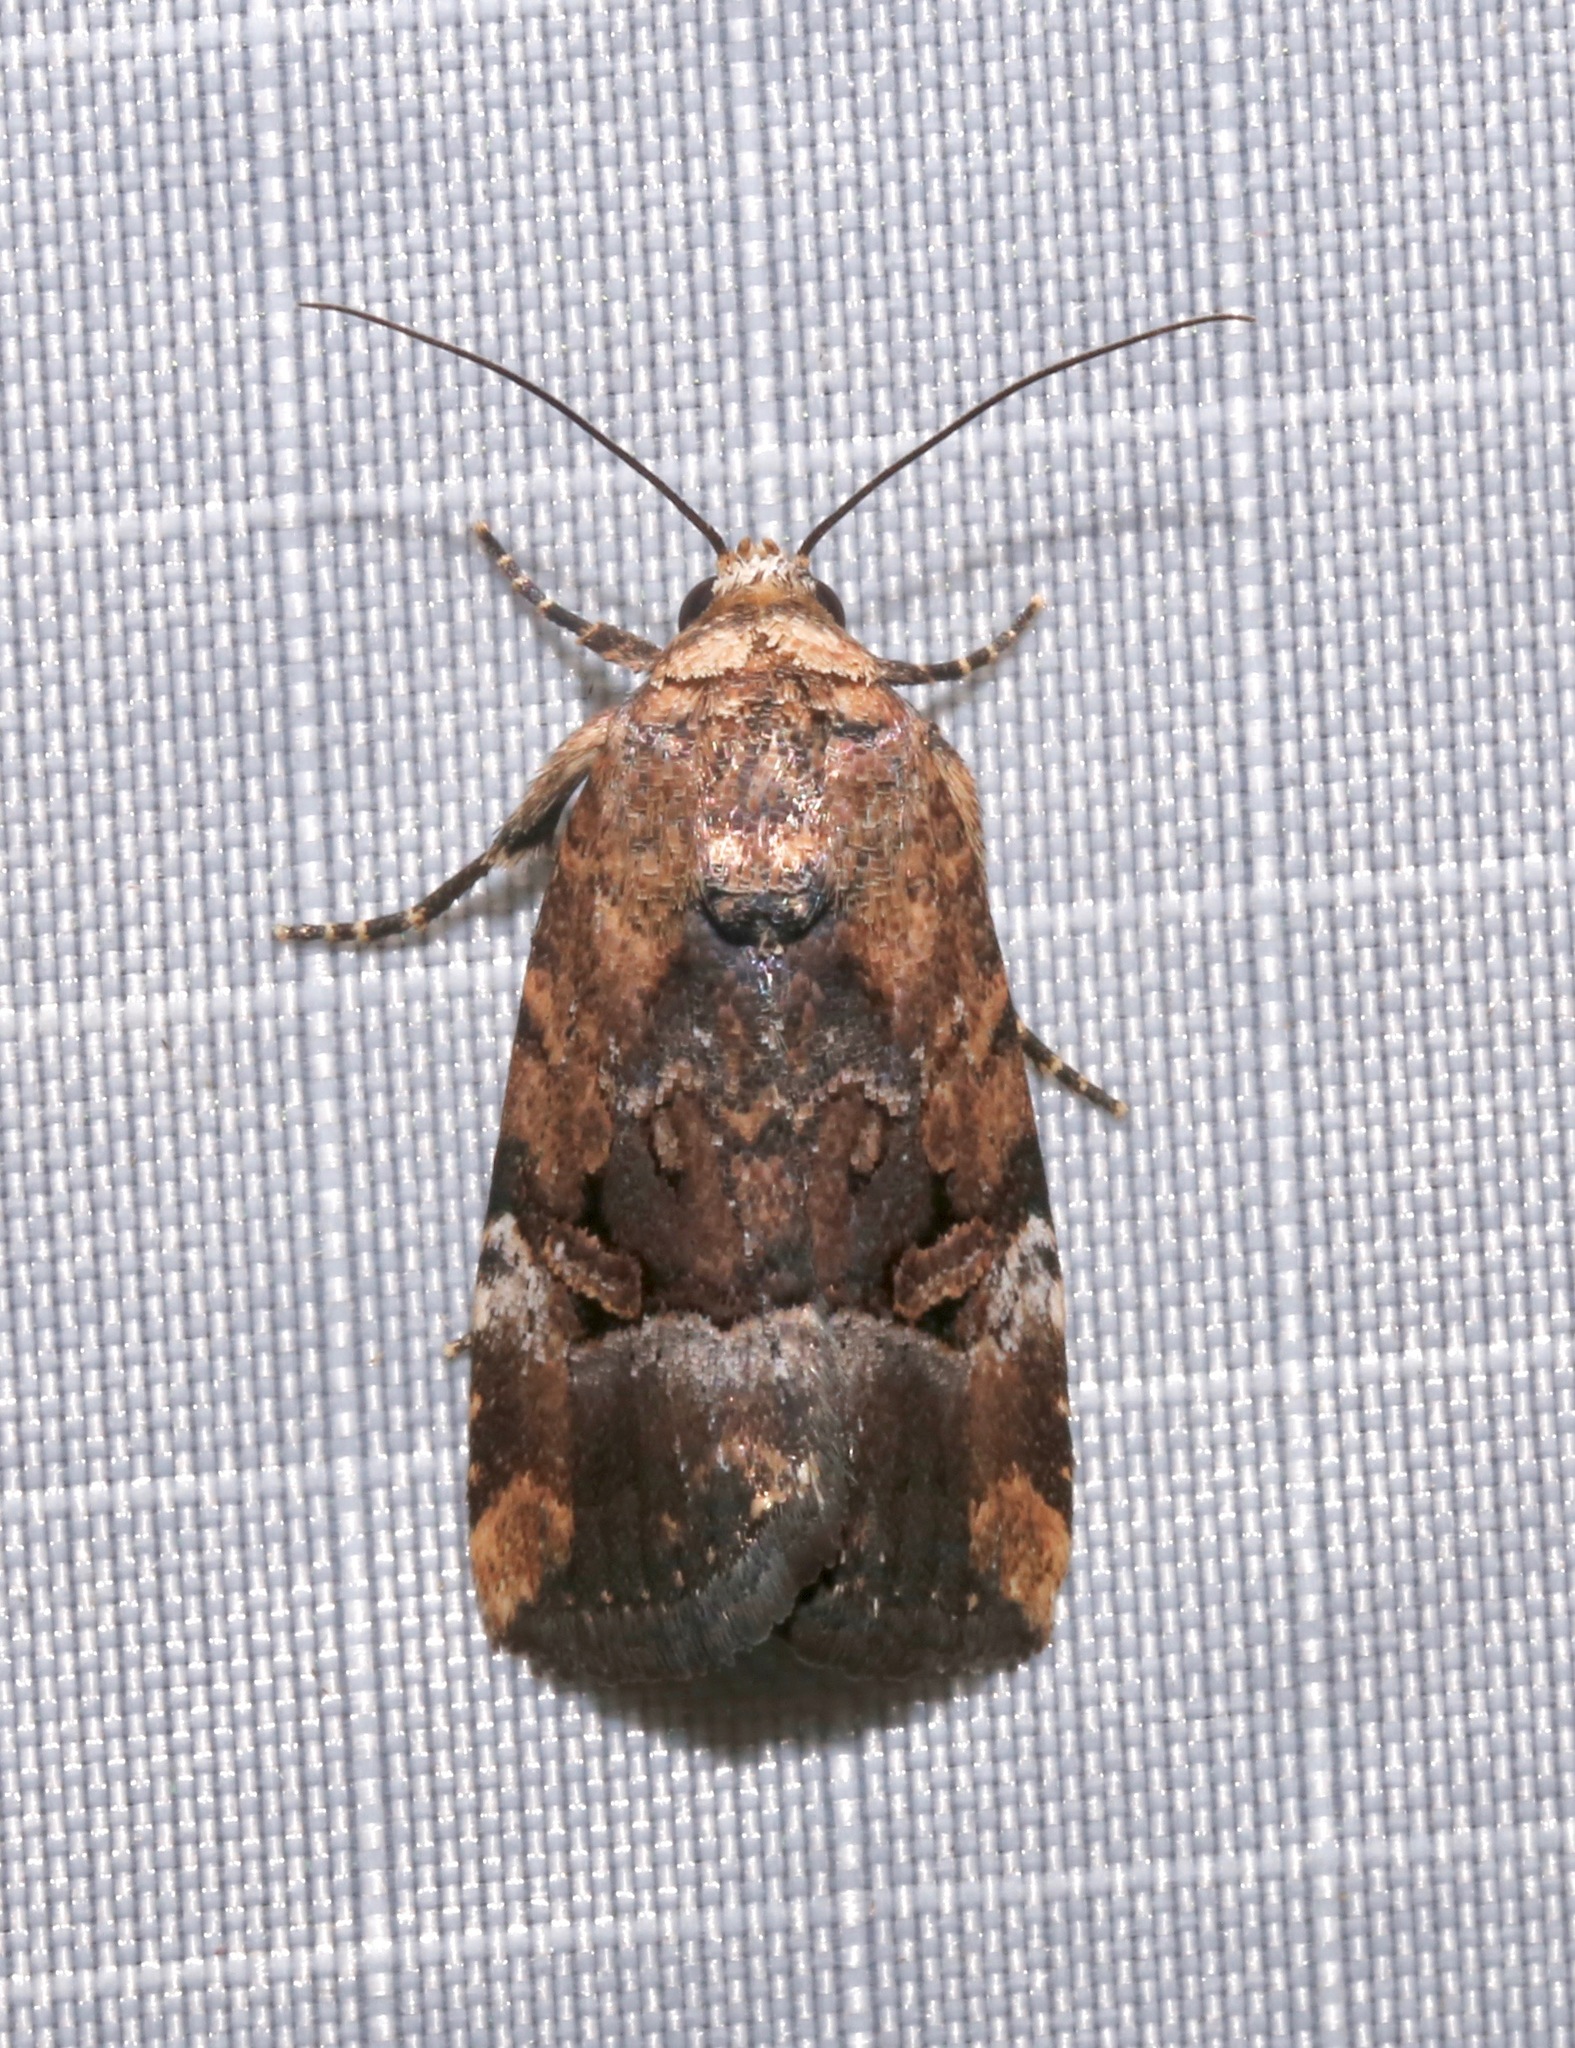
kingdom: Animalia
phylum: Arthropoda
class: Insecta
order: Lepidoptera
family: Noctuidae
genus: Elaphria
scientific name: Elaphria chalcedonia
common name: Chalcedony midget
